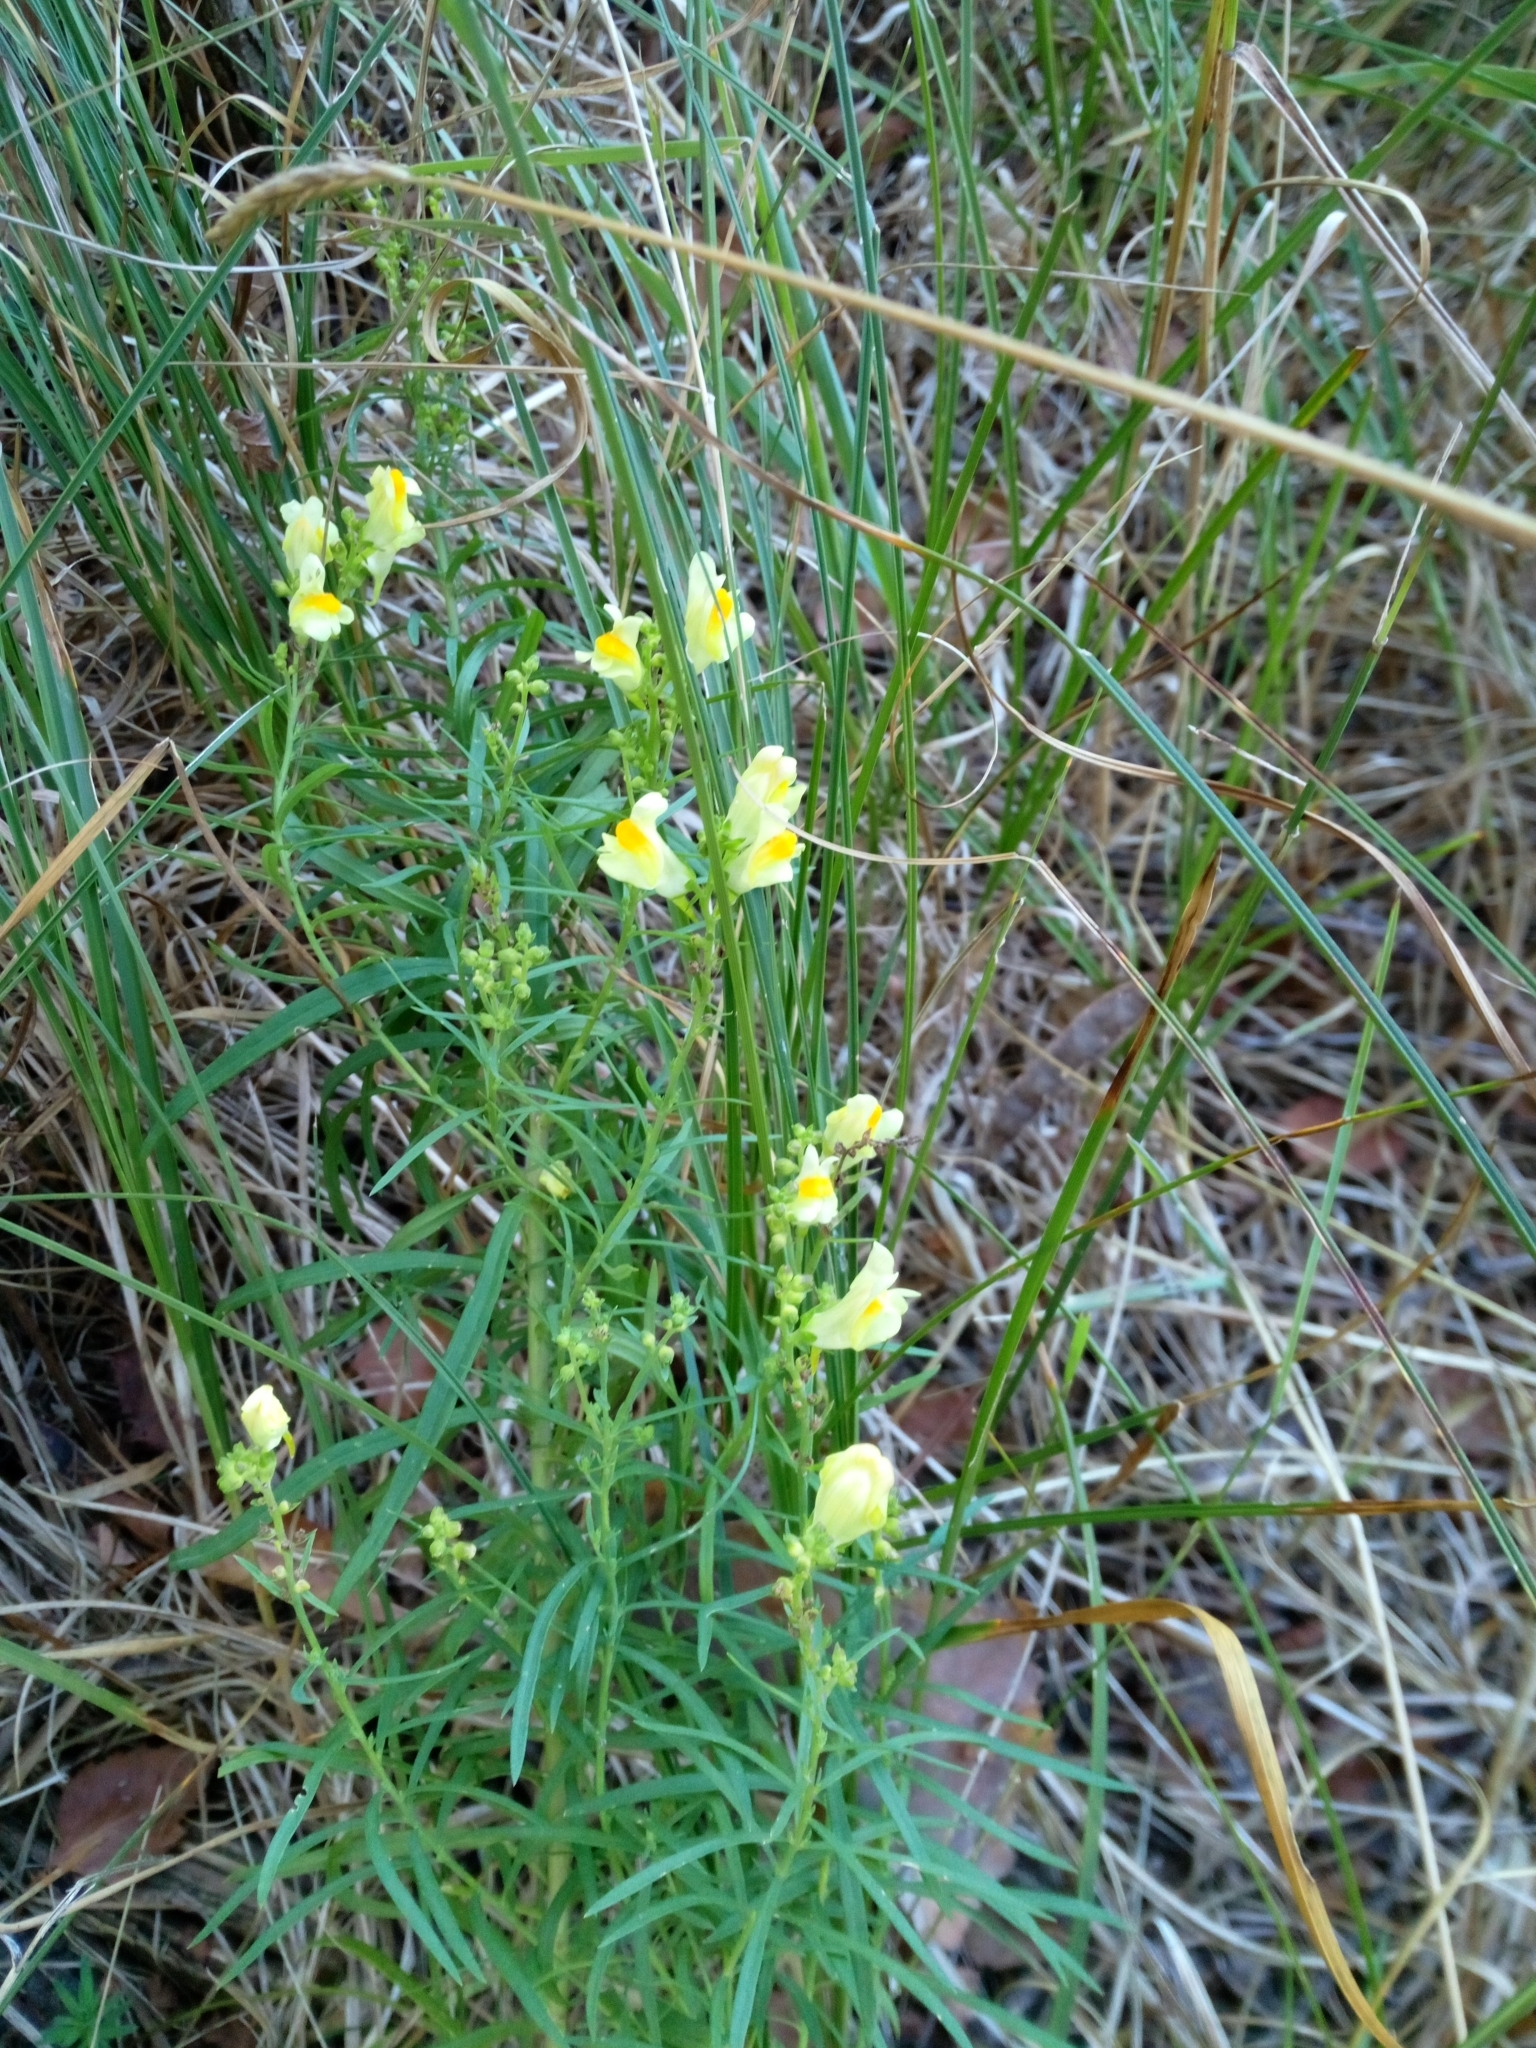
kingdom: Plantae
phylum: Tracheophyta
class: Magnoliopsida
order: Lamiales
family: Plantaginaceae
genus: Linaria
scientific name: Linaria vulgaris
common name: Butter and eggs
